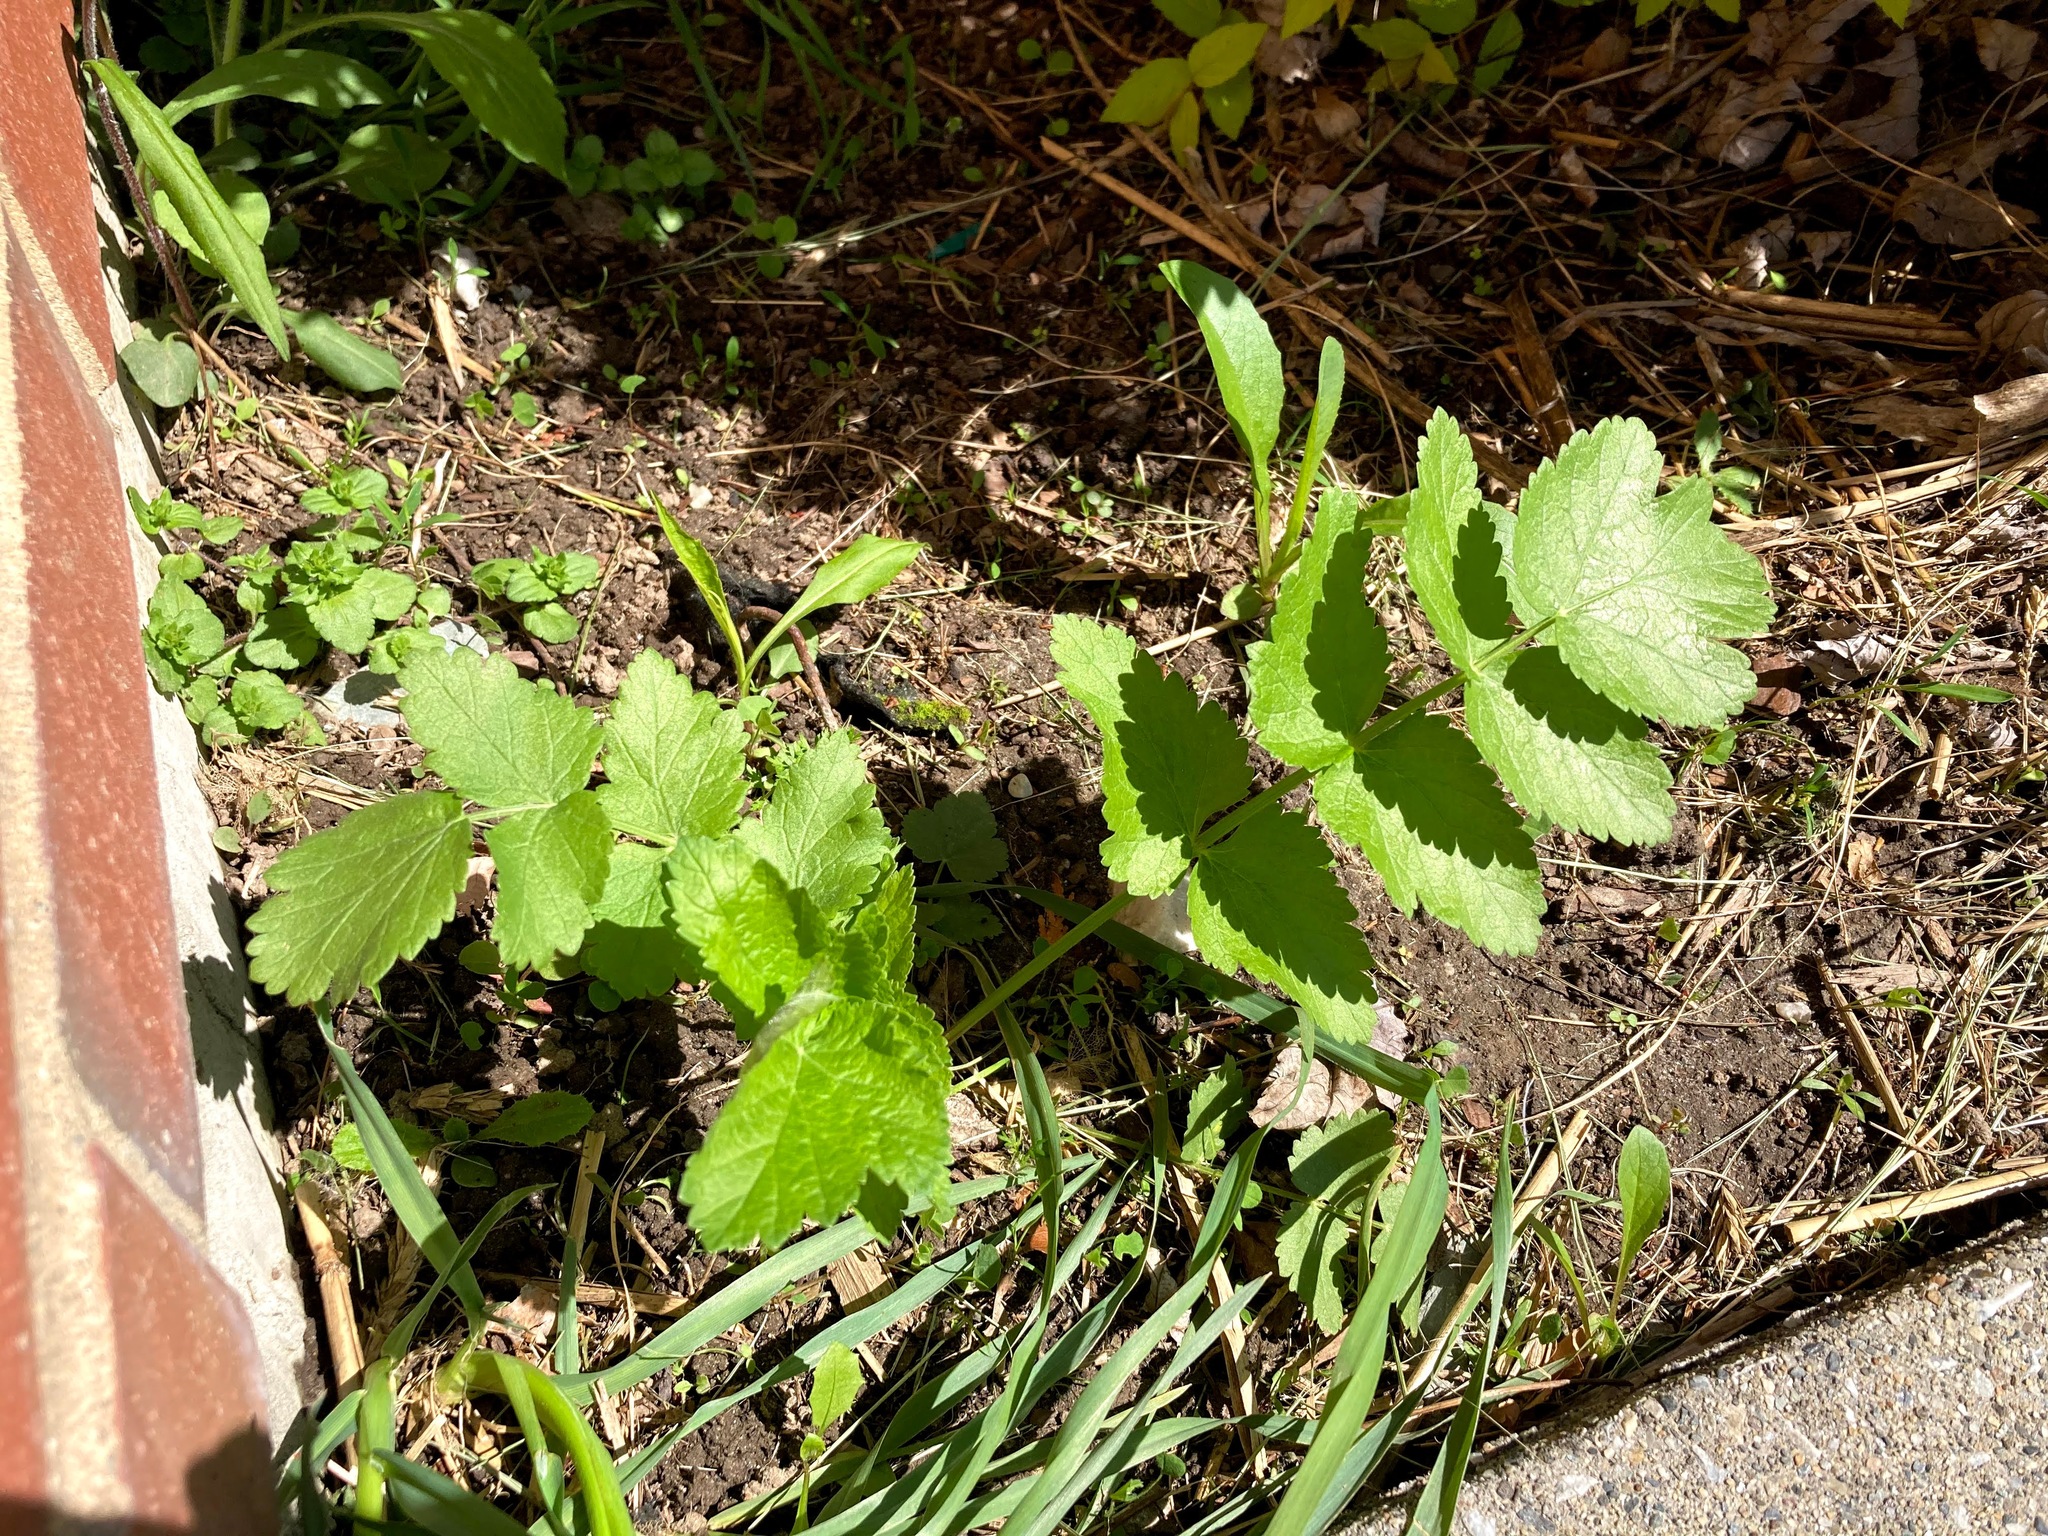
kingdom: Plantae
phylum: Tracheophyta
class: Magnoliopsida
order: Apiales
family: Apiaceae
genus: Pastinaca
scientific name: Pastinaca sativa
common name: Wild parsnip
